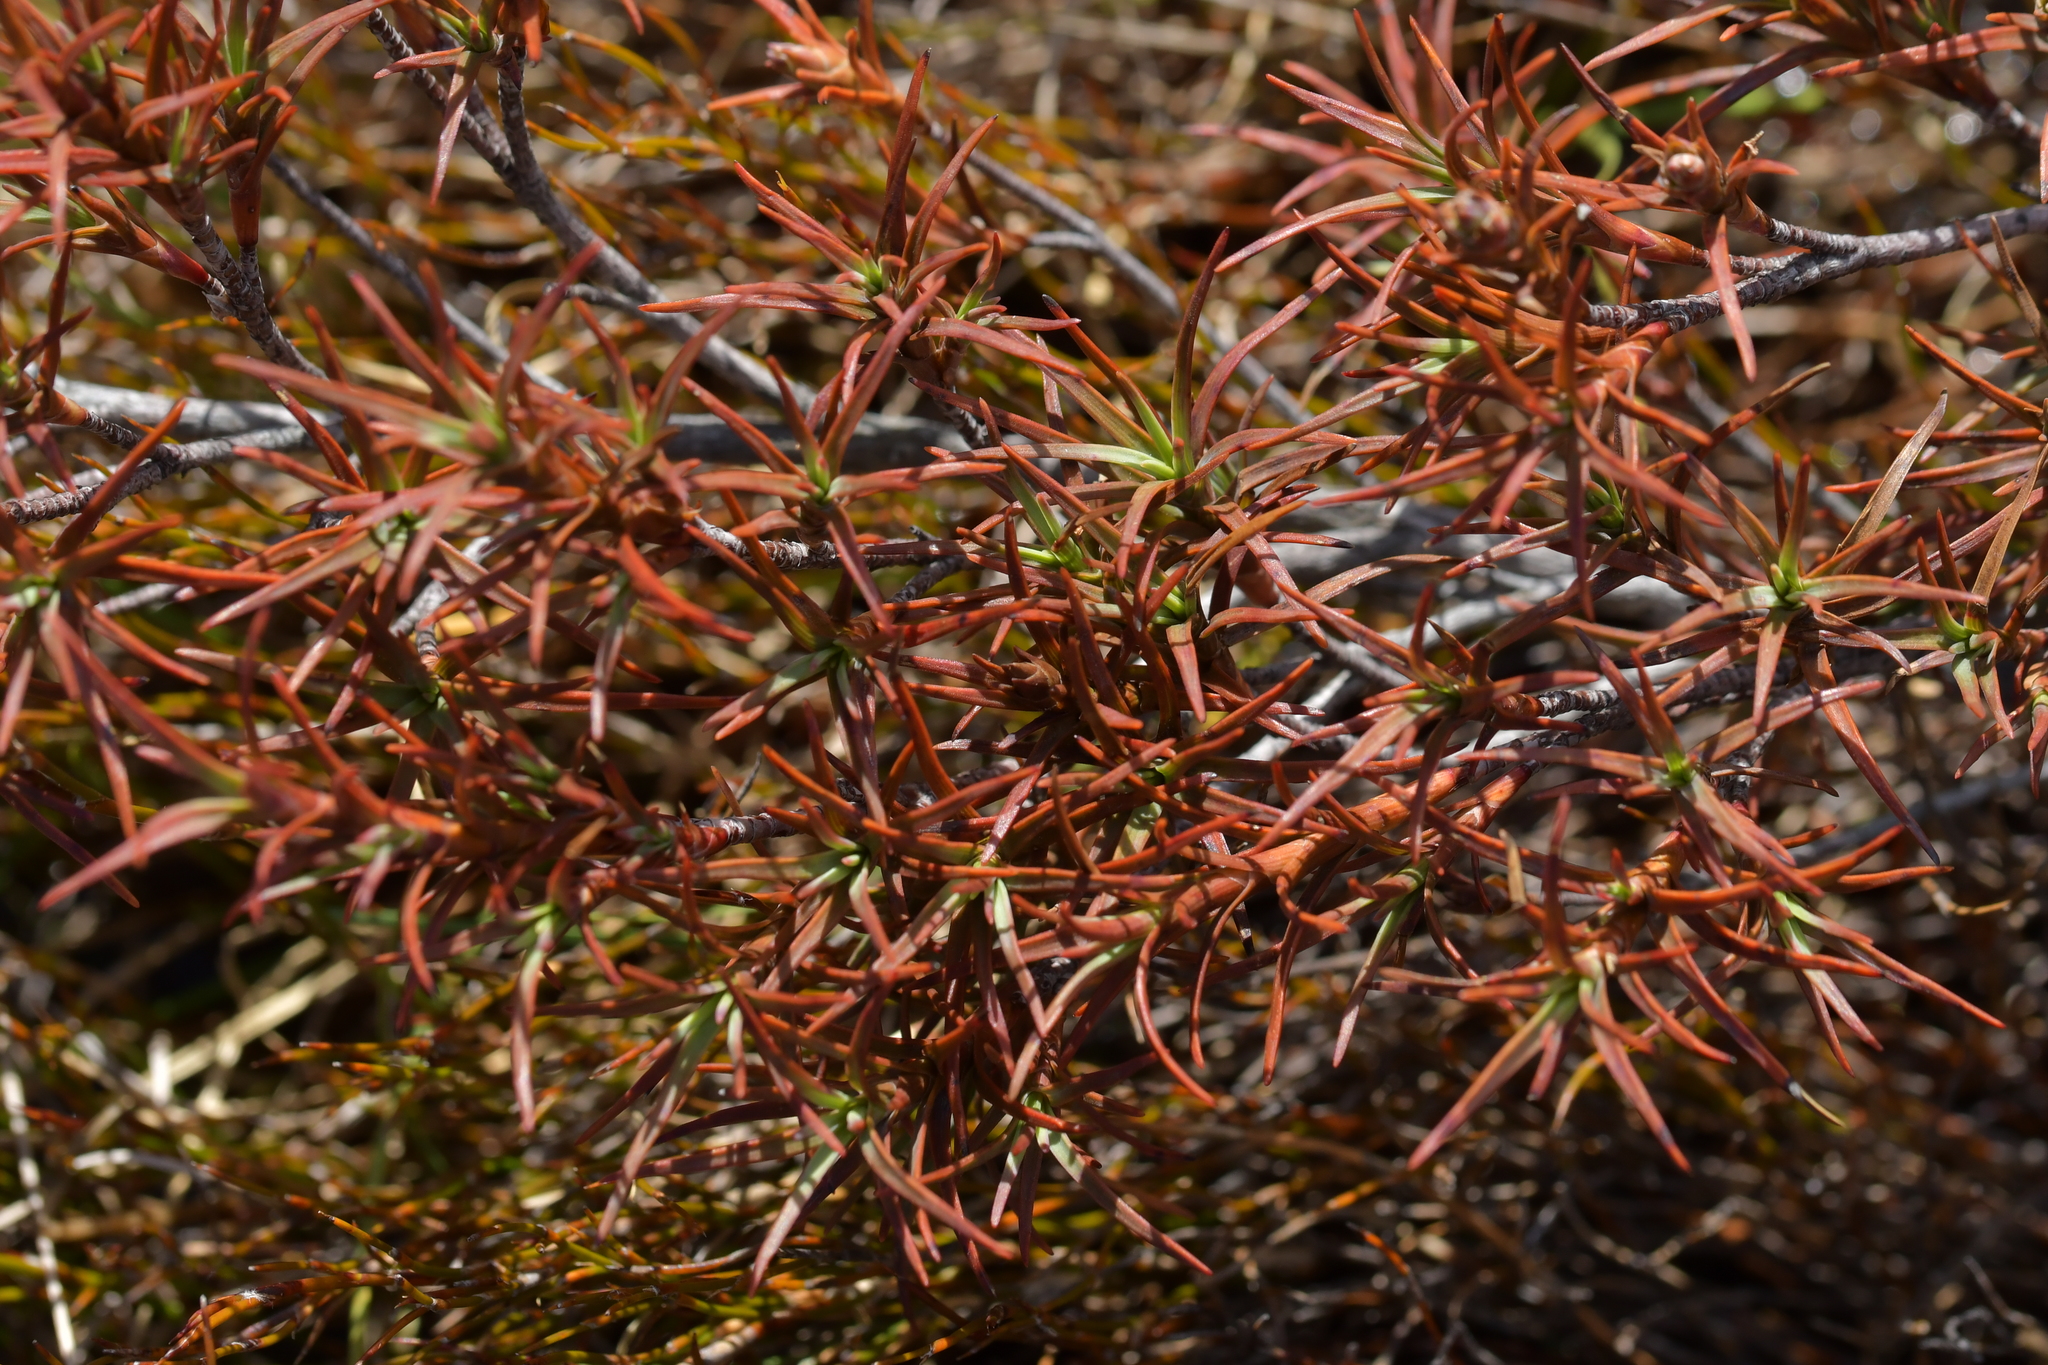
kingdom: Plantae
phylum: Tracheophyta
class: Magnoliopsida
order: Ericales
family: Ericaceae
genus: Dracophyllum
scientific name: Dracophyllum recurvum
